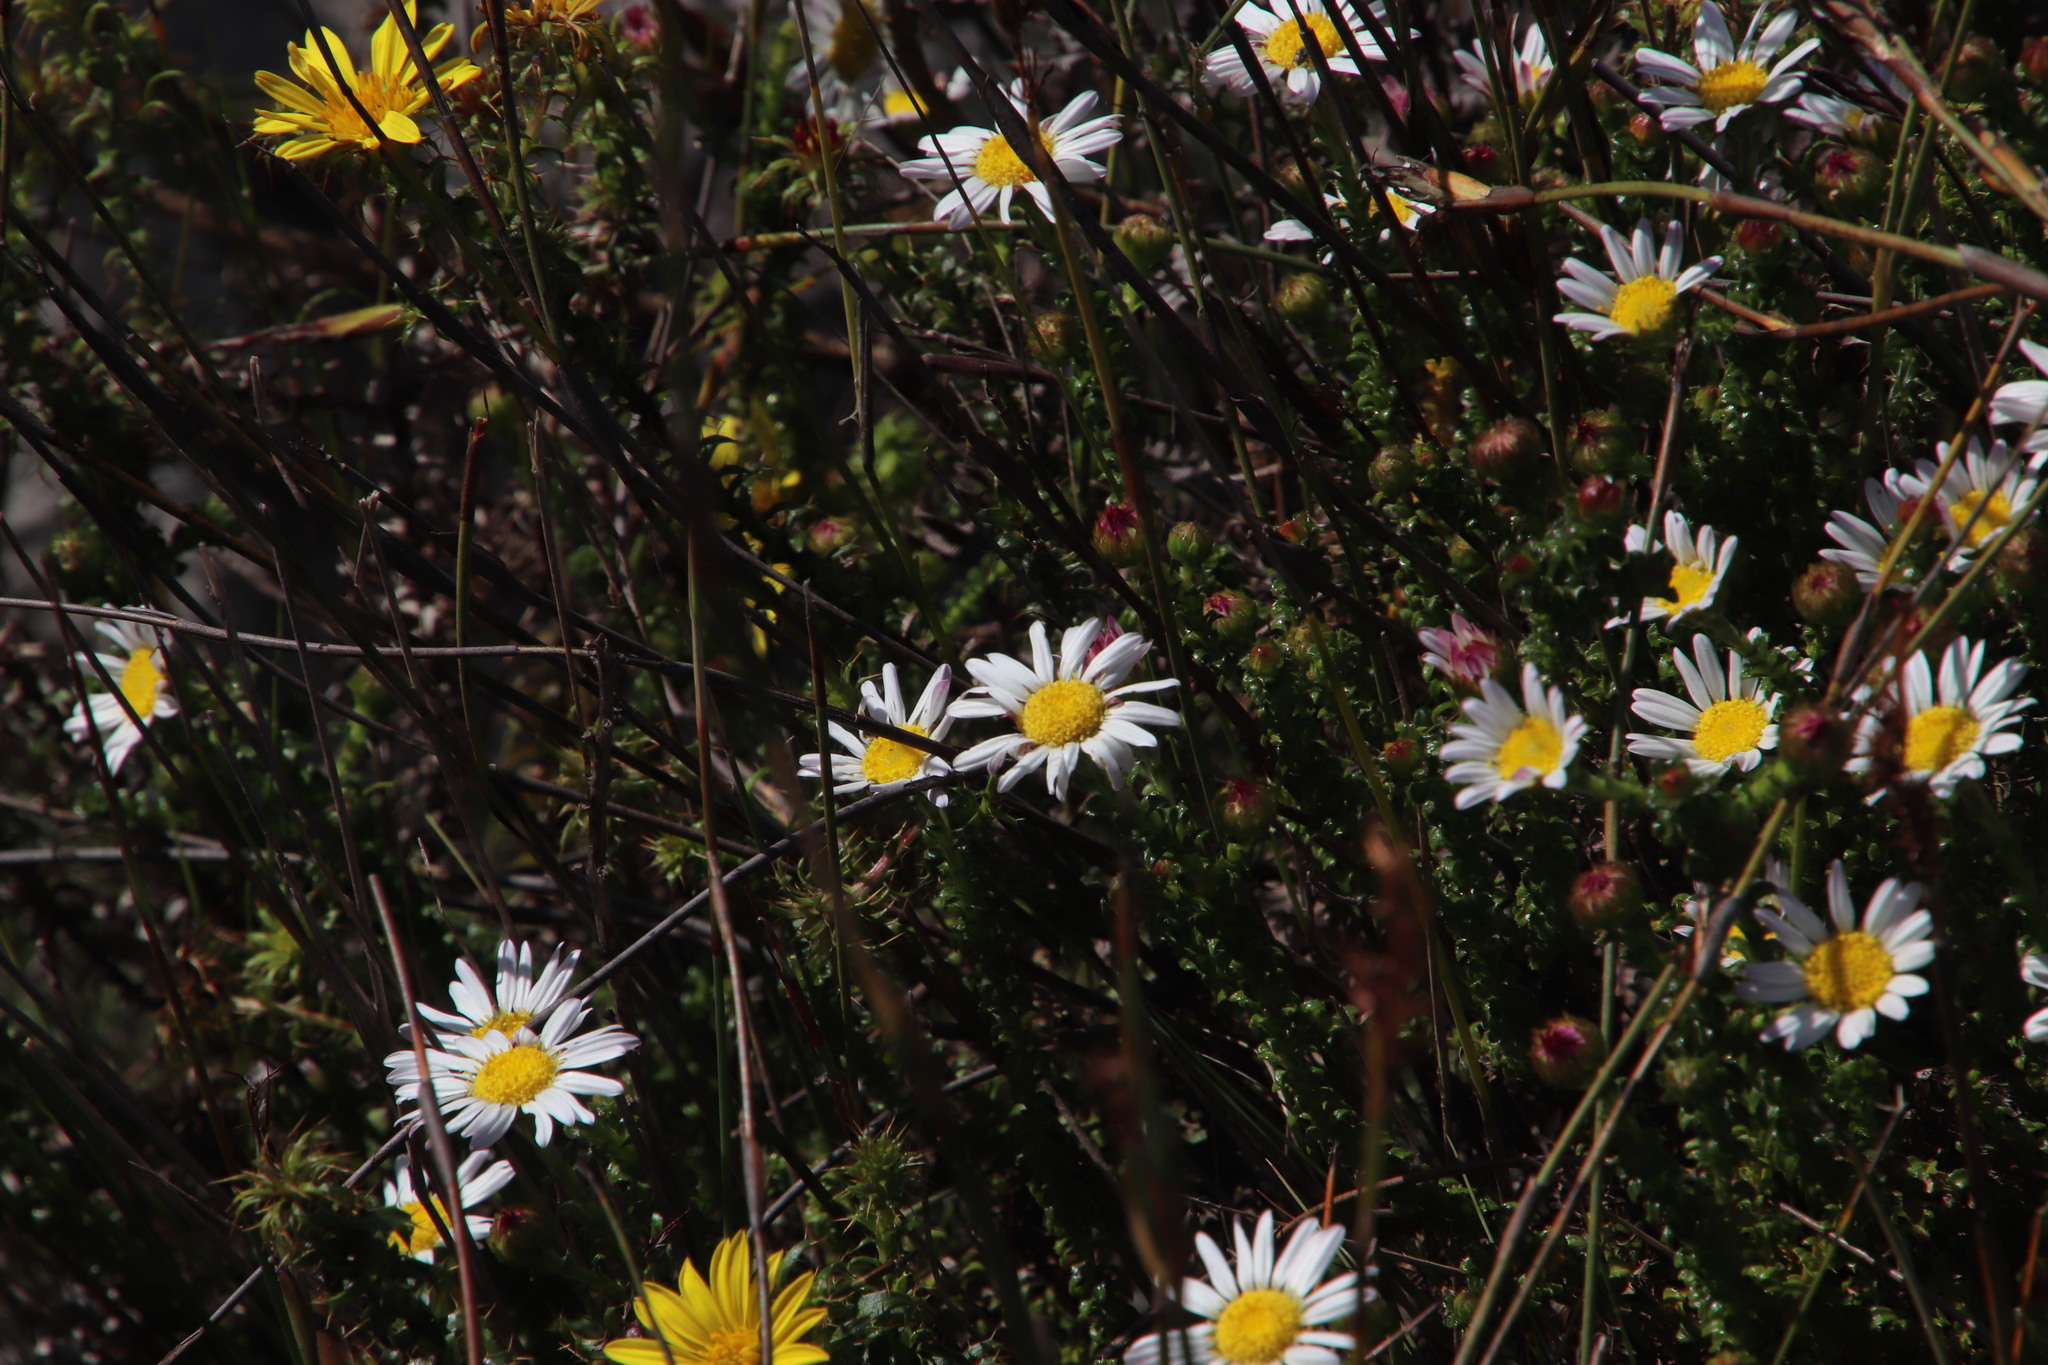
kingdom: Plantae
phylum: Tracheophyta
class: Magnoliopsida
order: Asterales
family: Asteraceae
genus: Polyarrhena
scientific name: Polyarrhena reflexa
